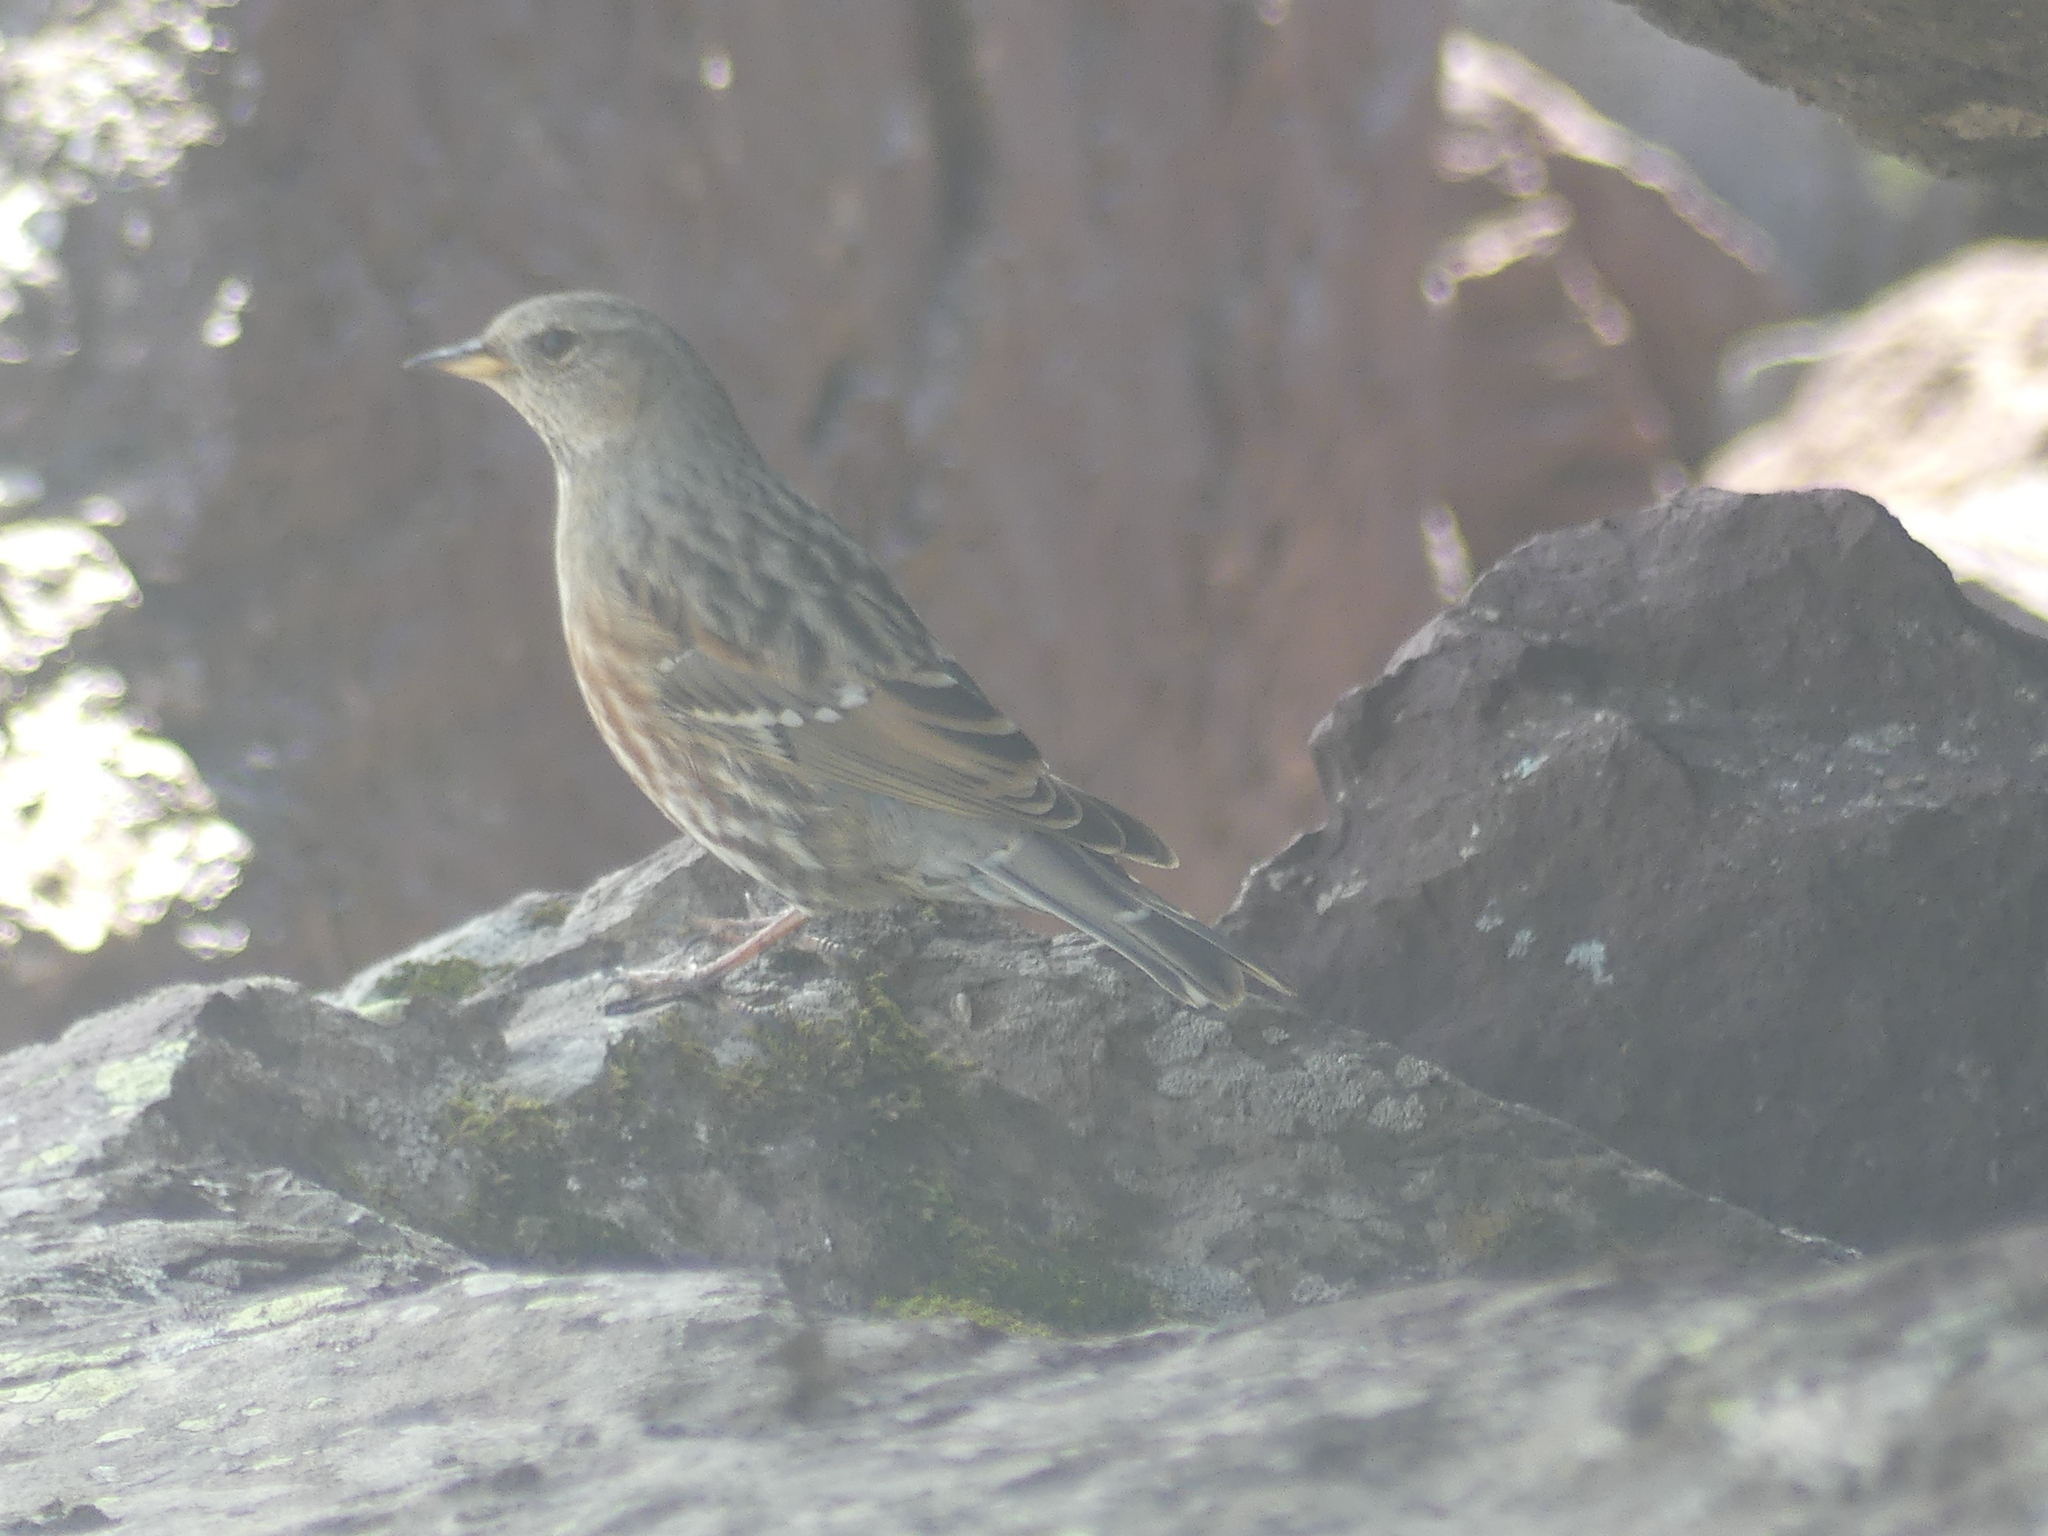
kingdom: Animalia
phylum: Chordata
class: Aves
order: Passeriformes
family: Prunellidae
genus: Prunella
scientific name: Prunella collaris
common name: Alpine accentor
